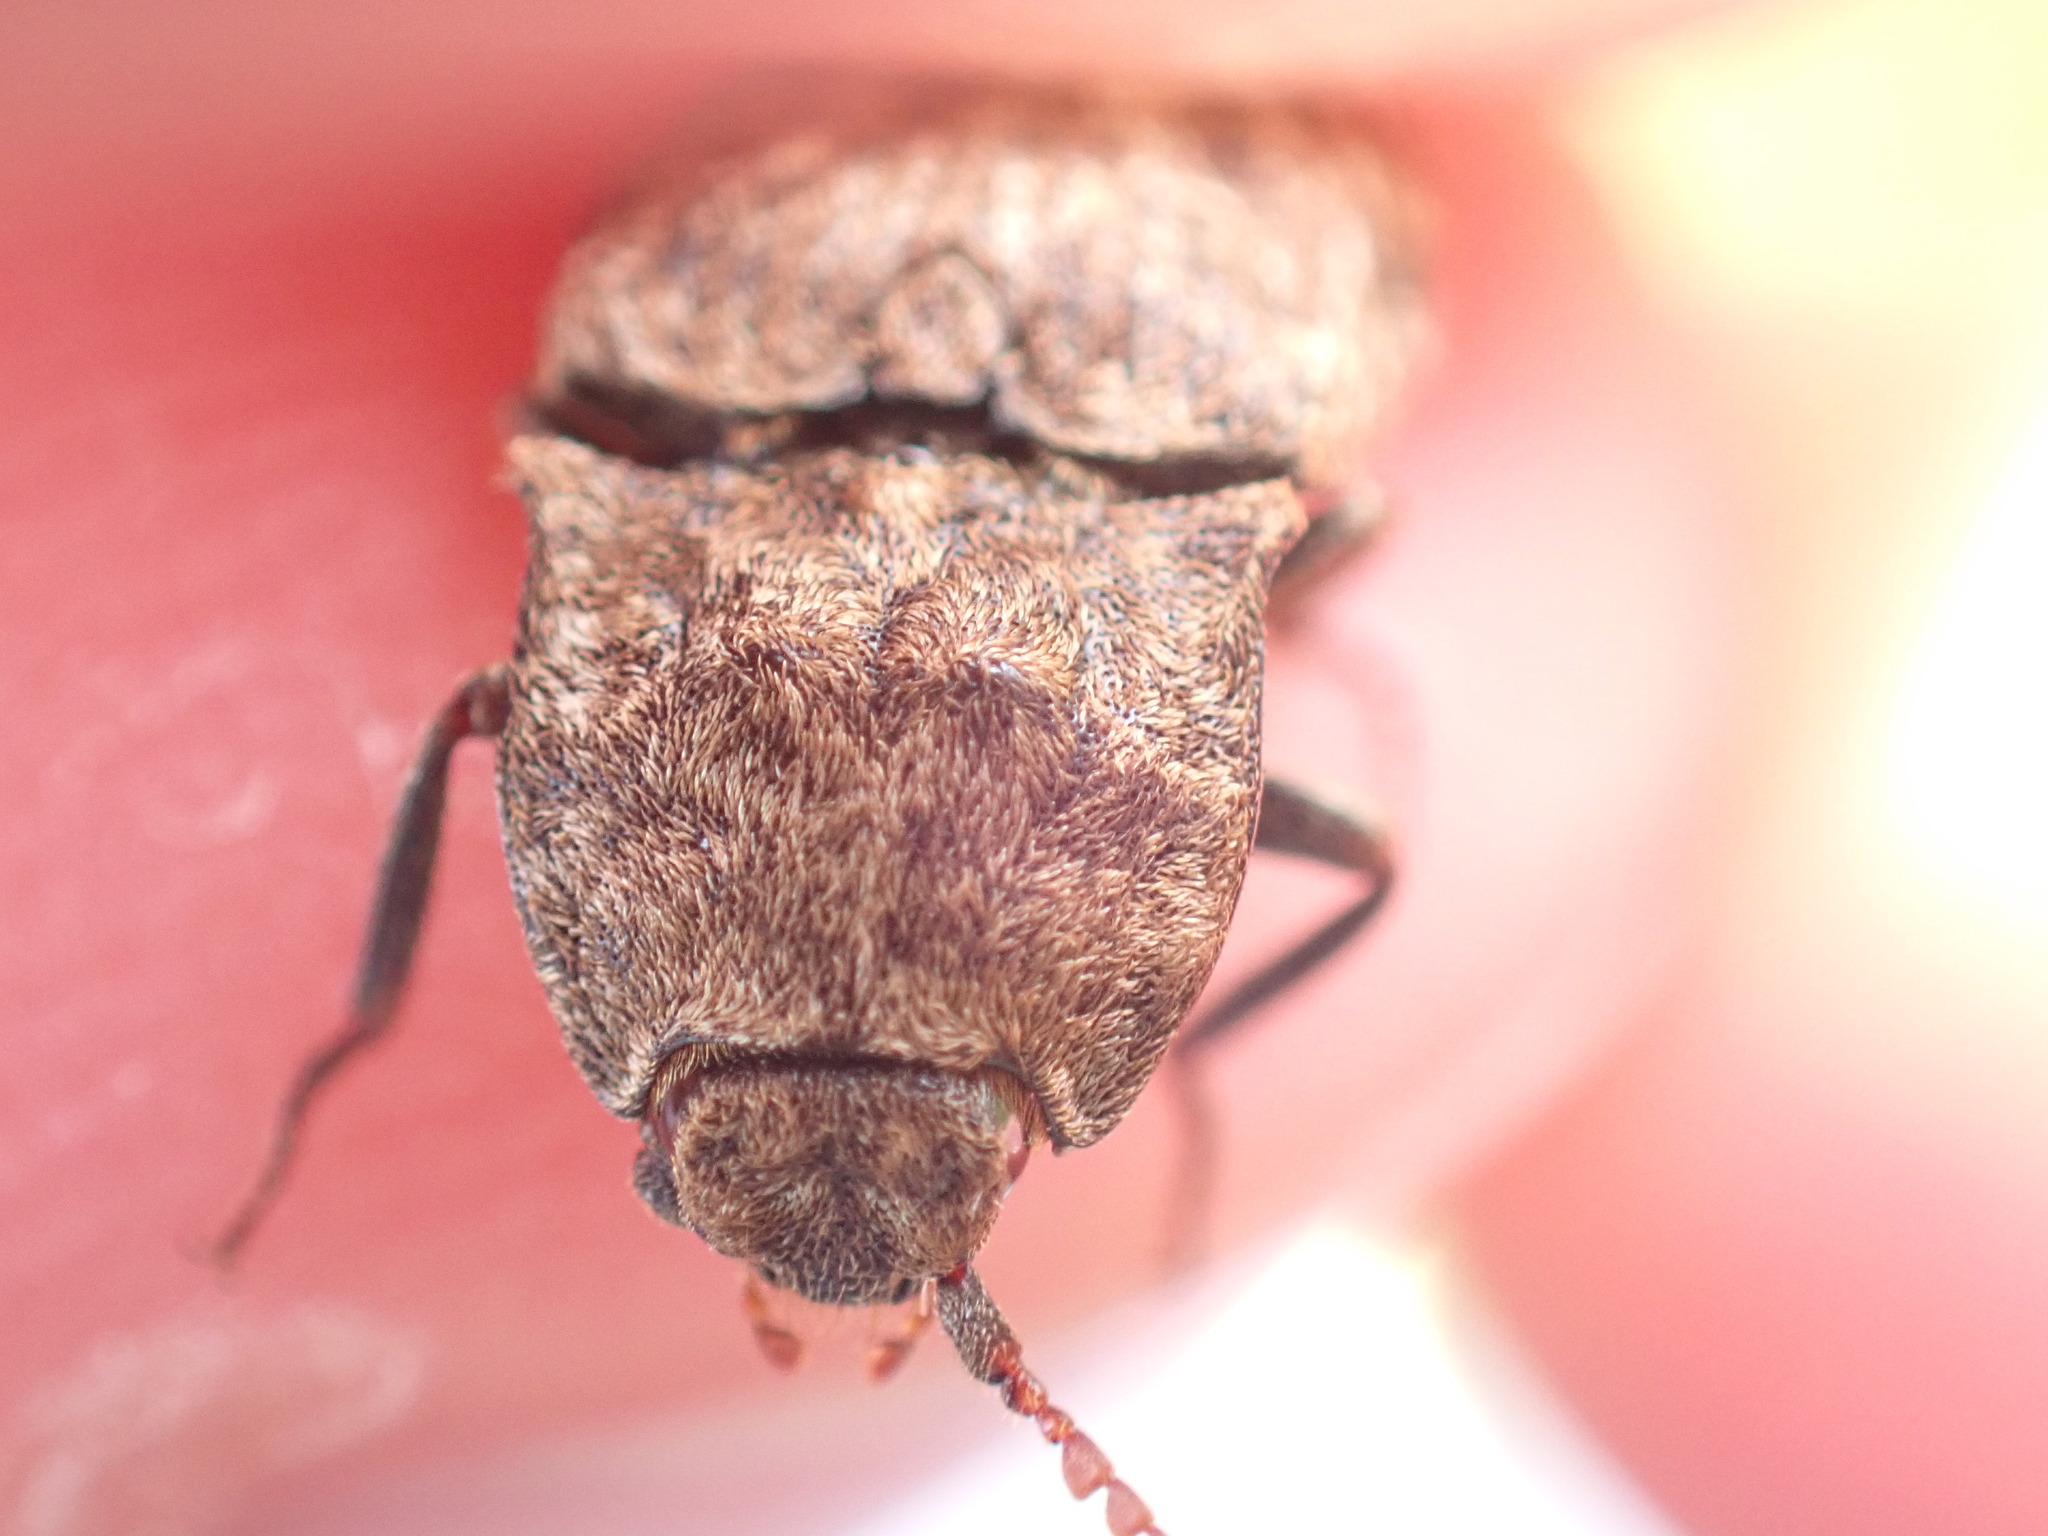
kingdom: Animalia
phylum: Arthropoda
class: Insecta
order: Coleoptera
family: Elateridae
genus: Agrypnus
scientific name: Agrypnus murinus
